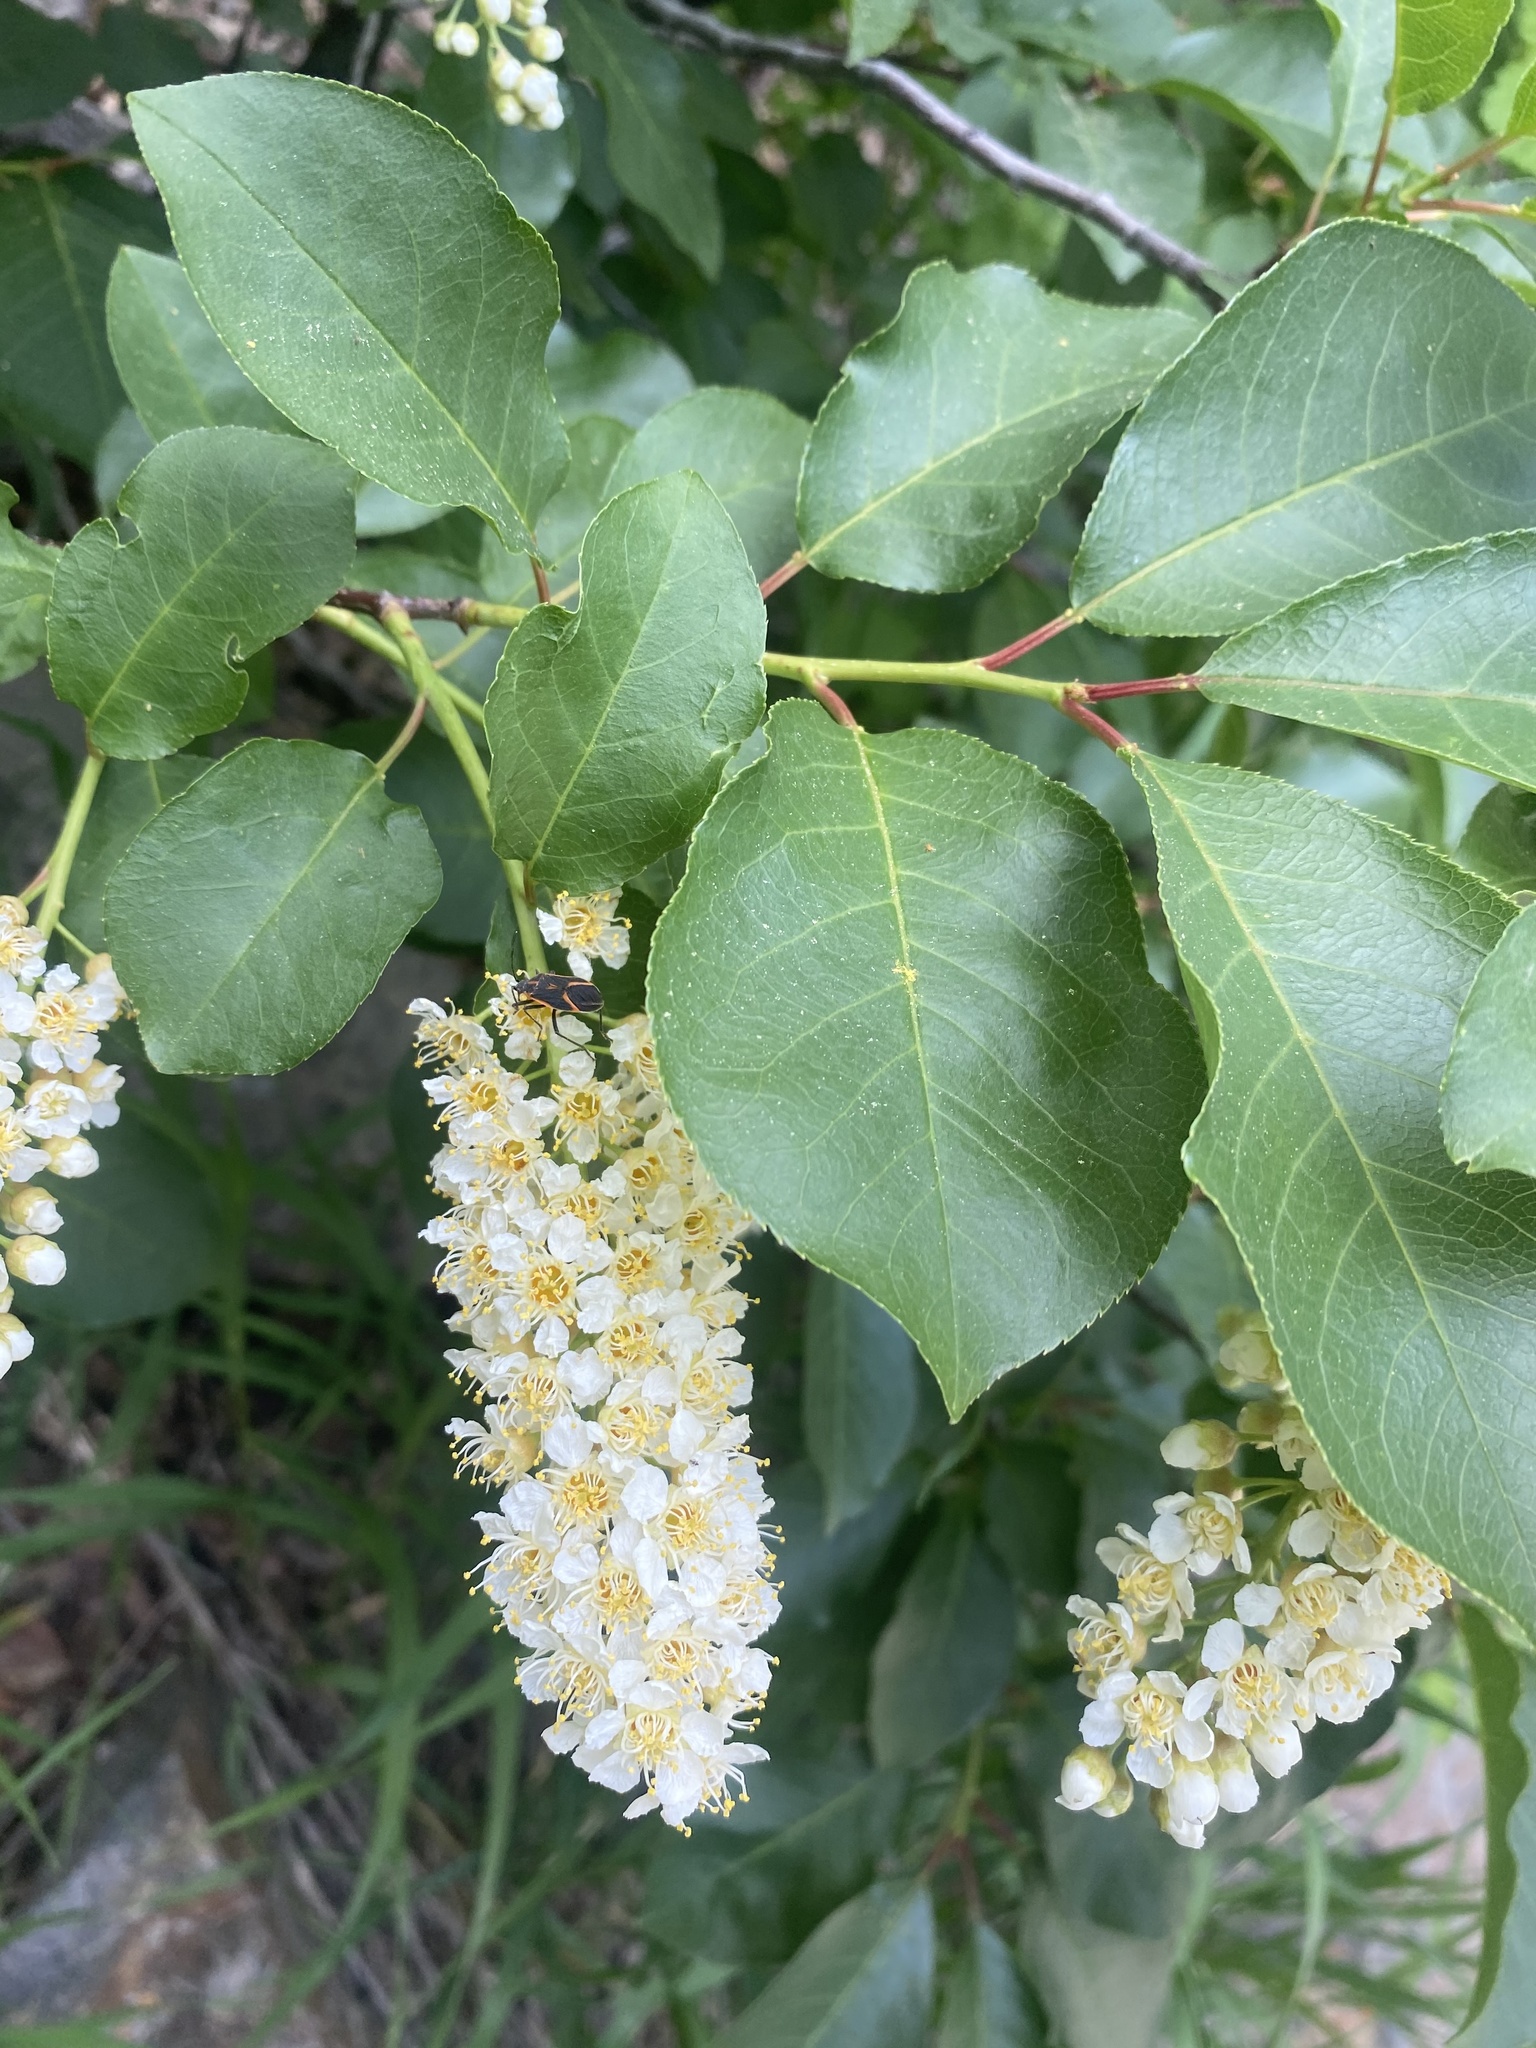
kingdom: Plantae
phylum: Tracheophyta
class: Magnoliopsida
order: Rosales
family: Rosaceae
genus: Prunus
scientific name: Prunus virginiana
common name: Chokecherry
